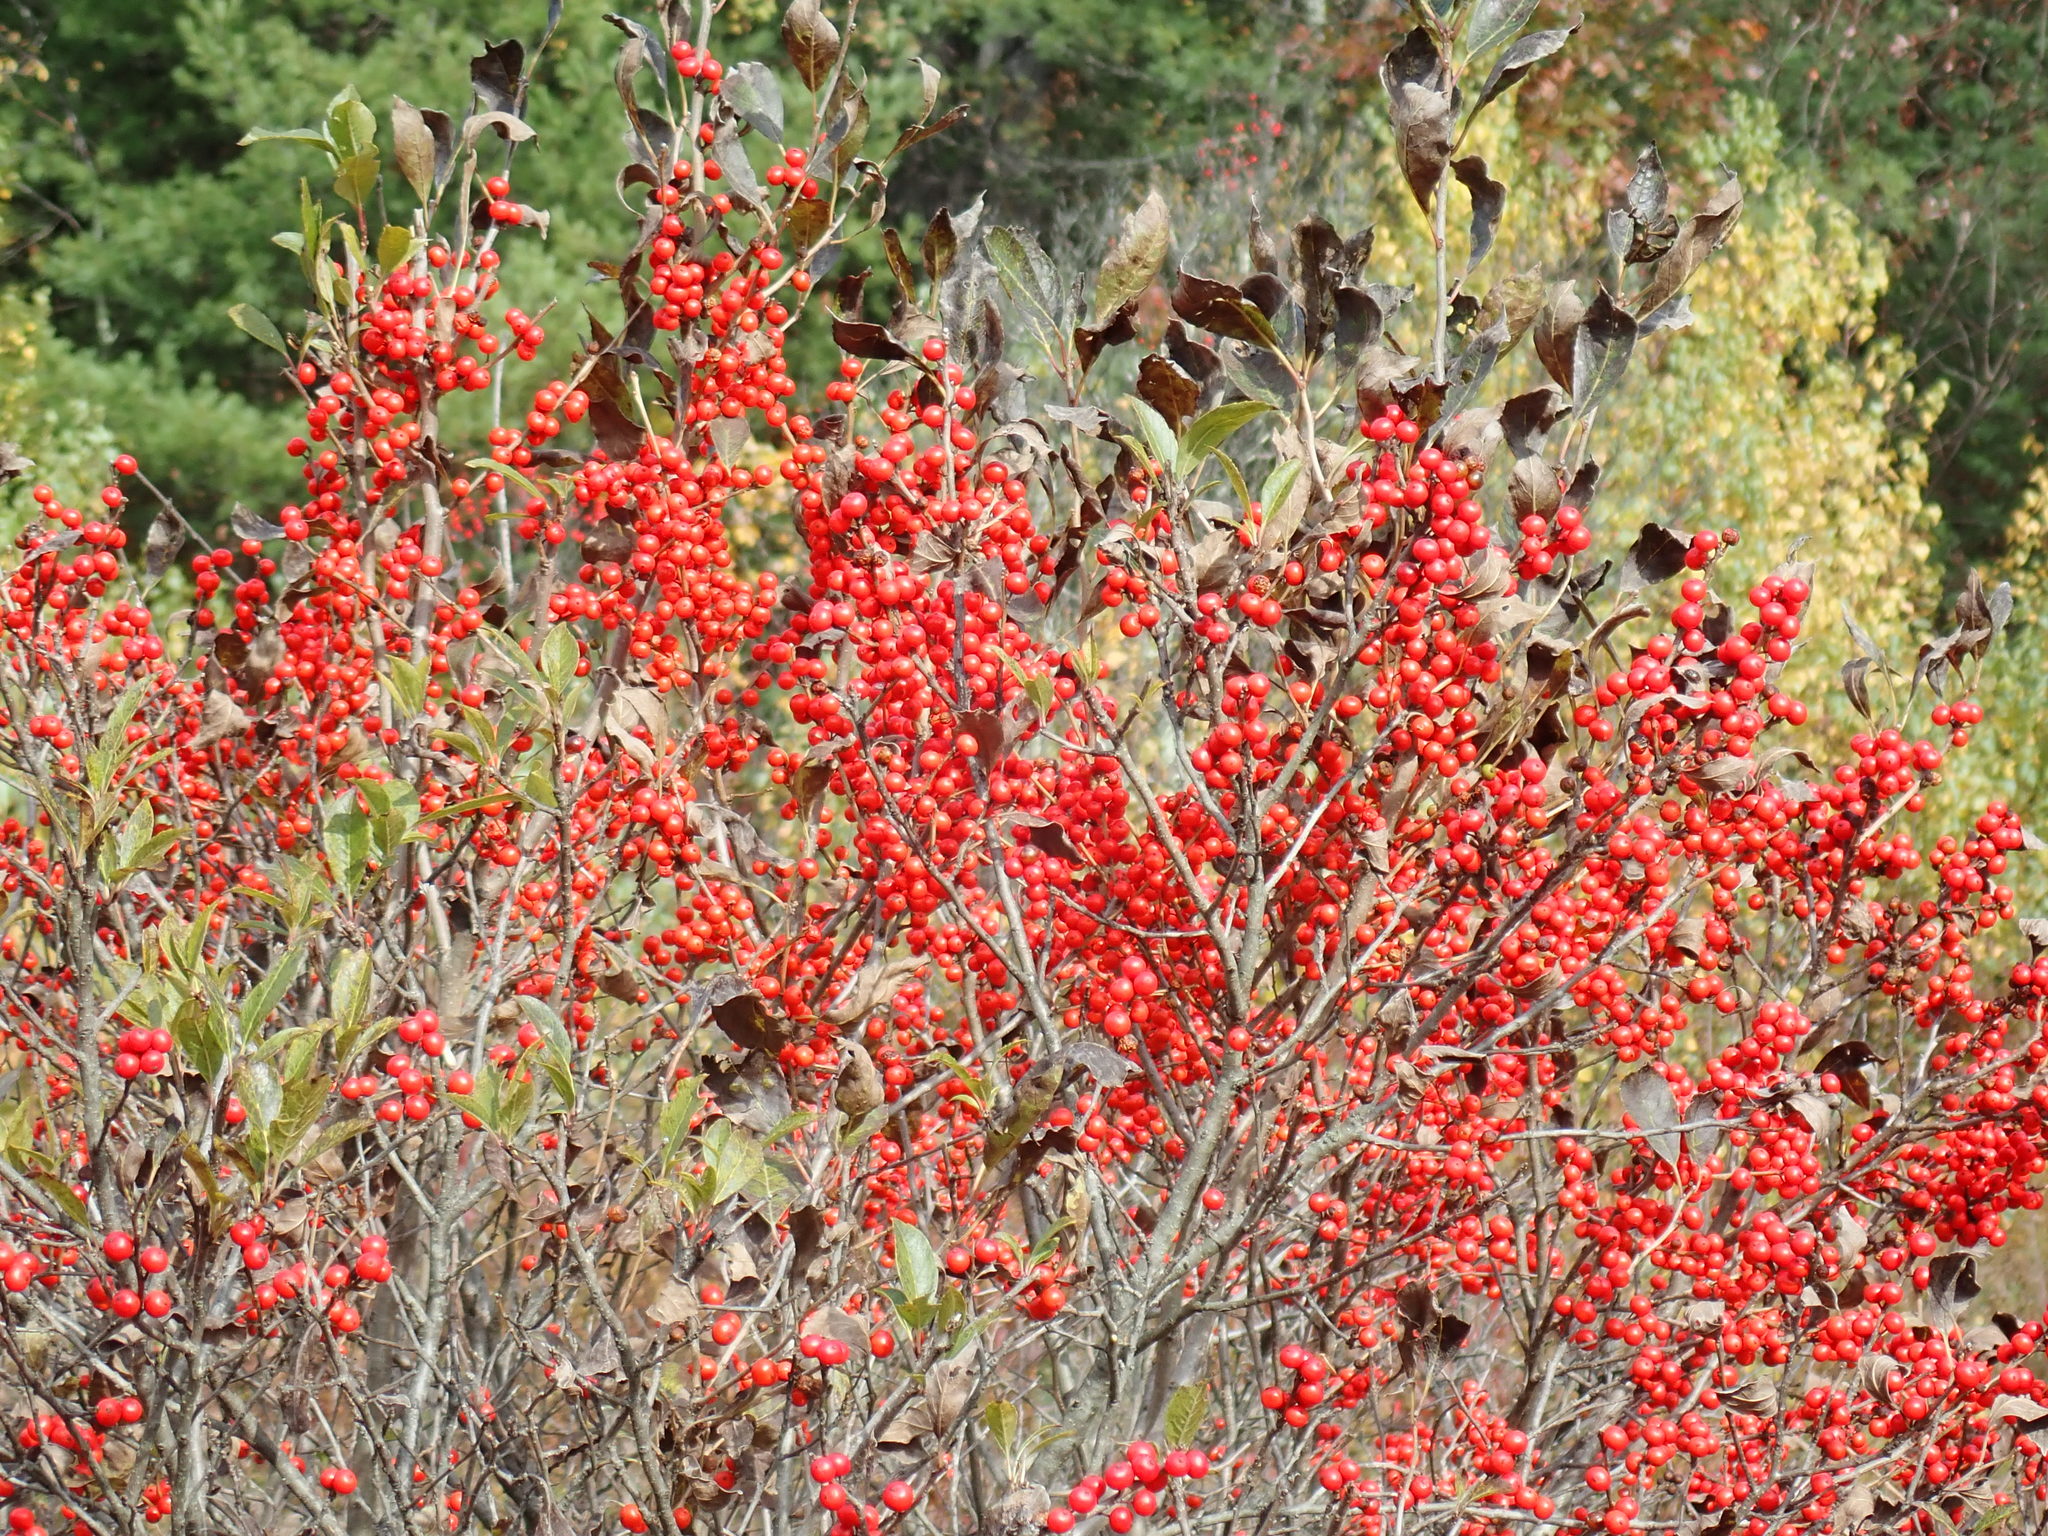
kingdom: Plantae
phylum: Tracheophyta
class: Magnoliopsida
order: Aquifoliales
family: Aquifoliaceae
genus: Ilex
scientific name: Ilex verticillata
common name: Virginia winterberry
